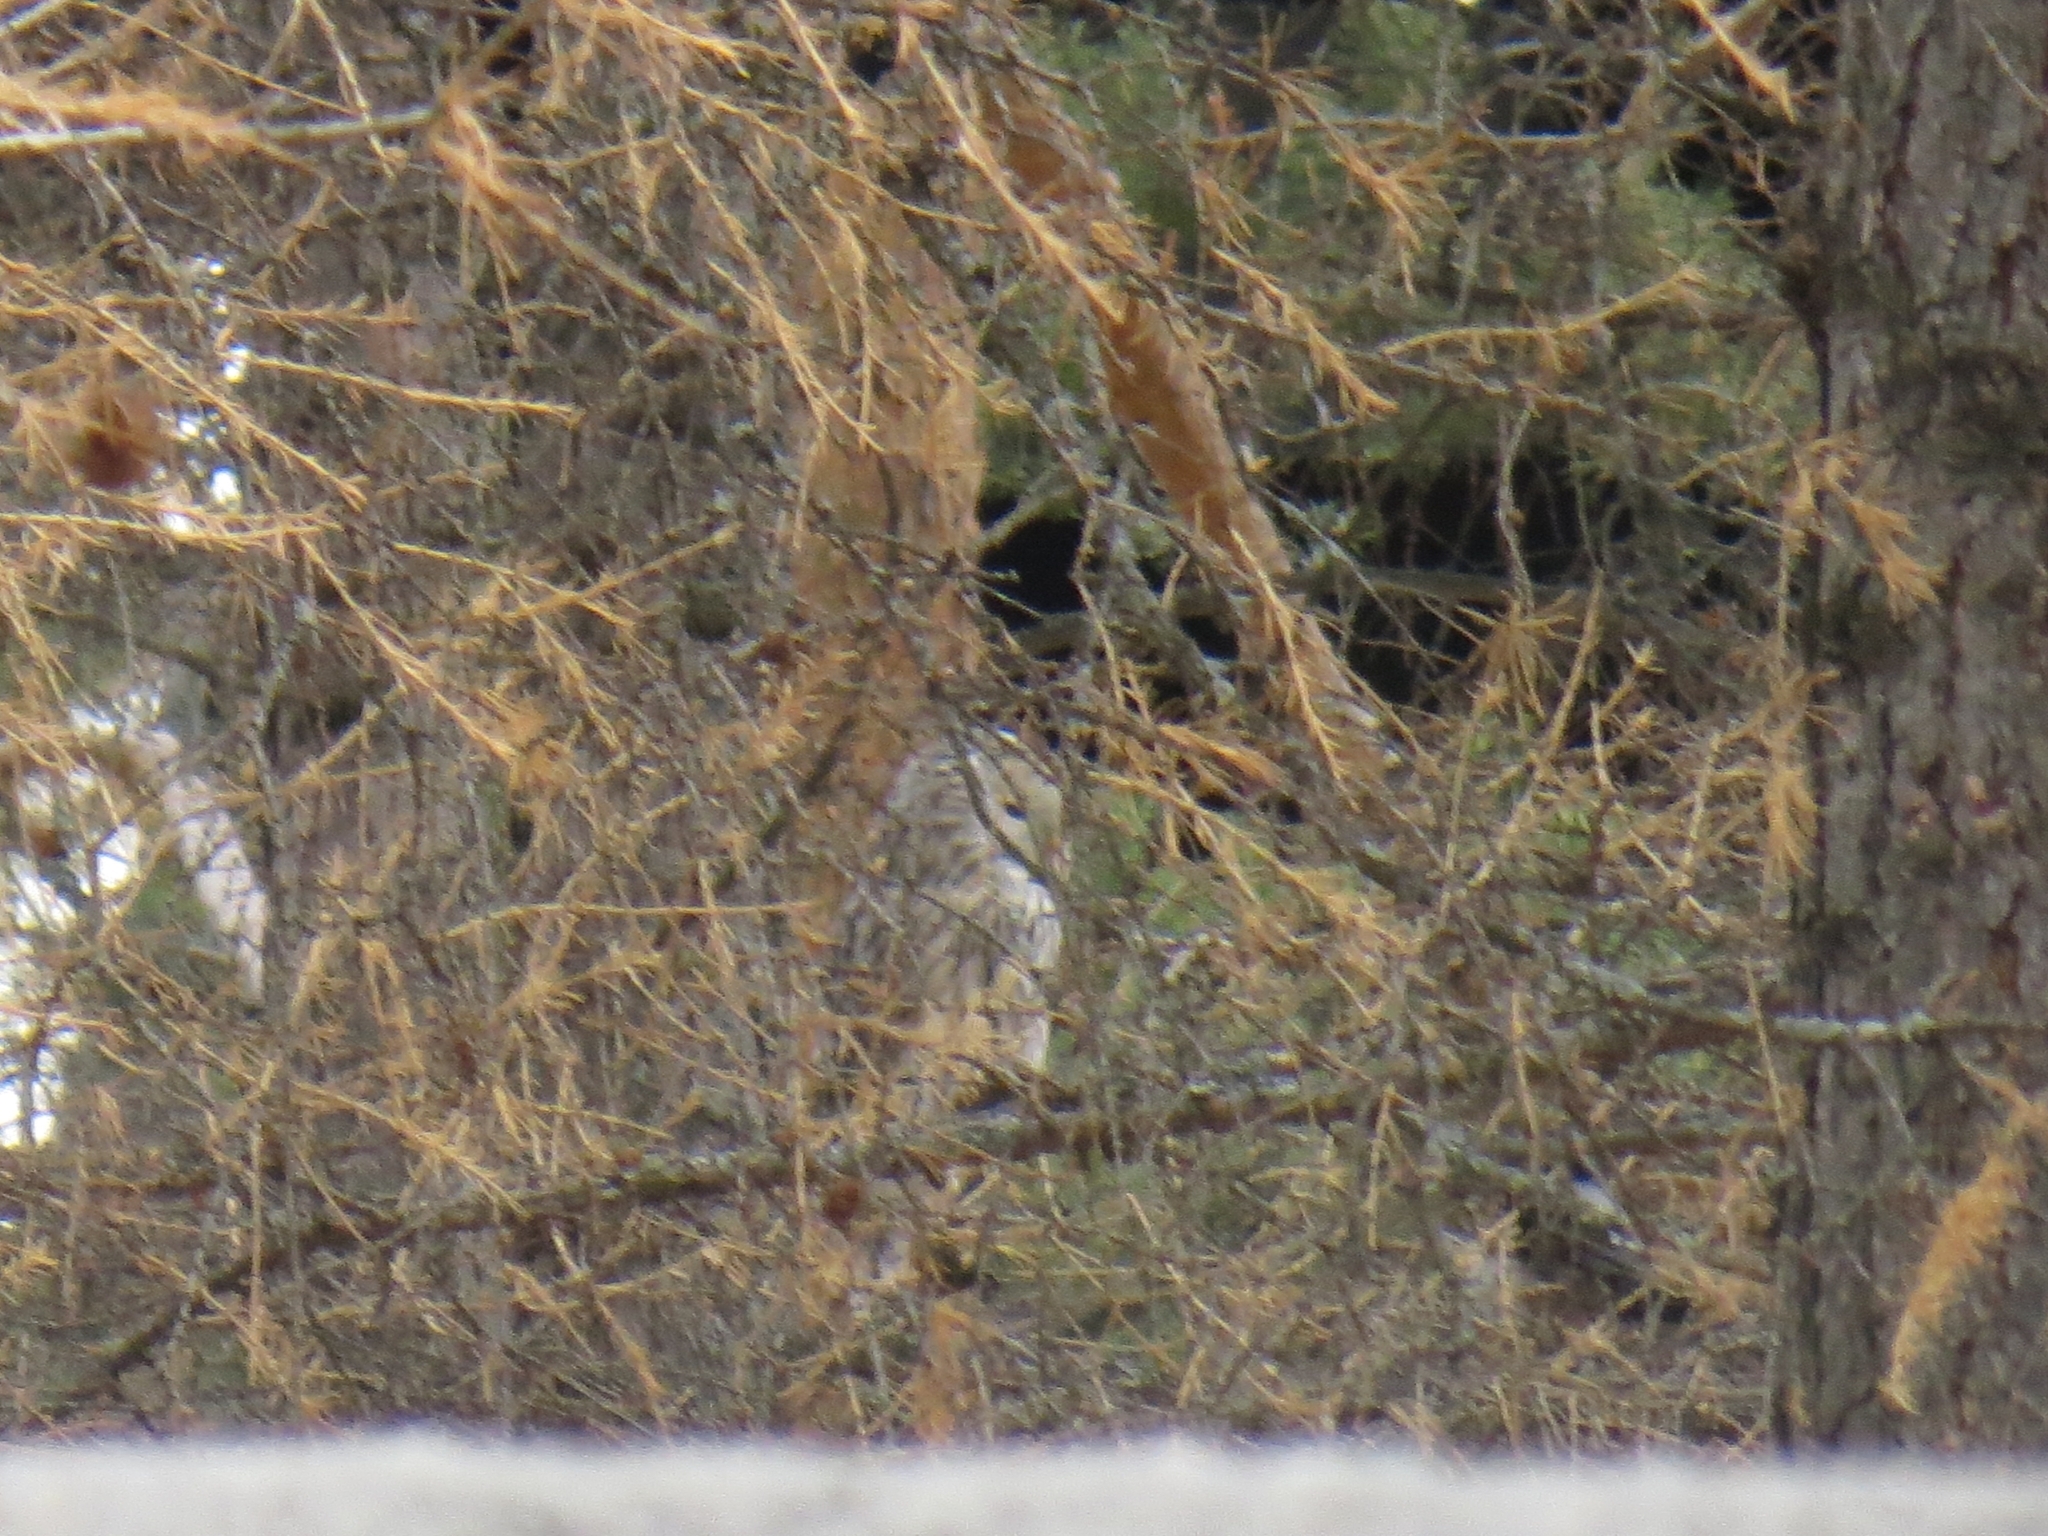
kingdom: Animalia
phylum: Chordata
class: Aves
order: Strigiformes
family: Strigidae
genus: Strix
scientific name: Strix uralensis
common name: Ural owl
